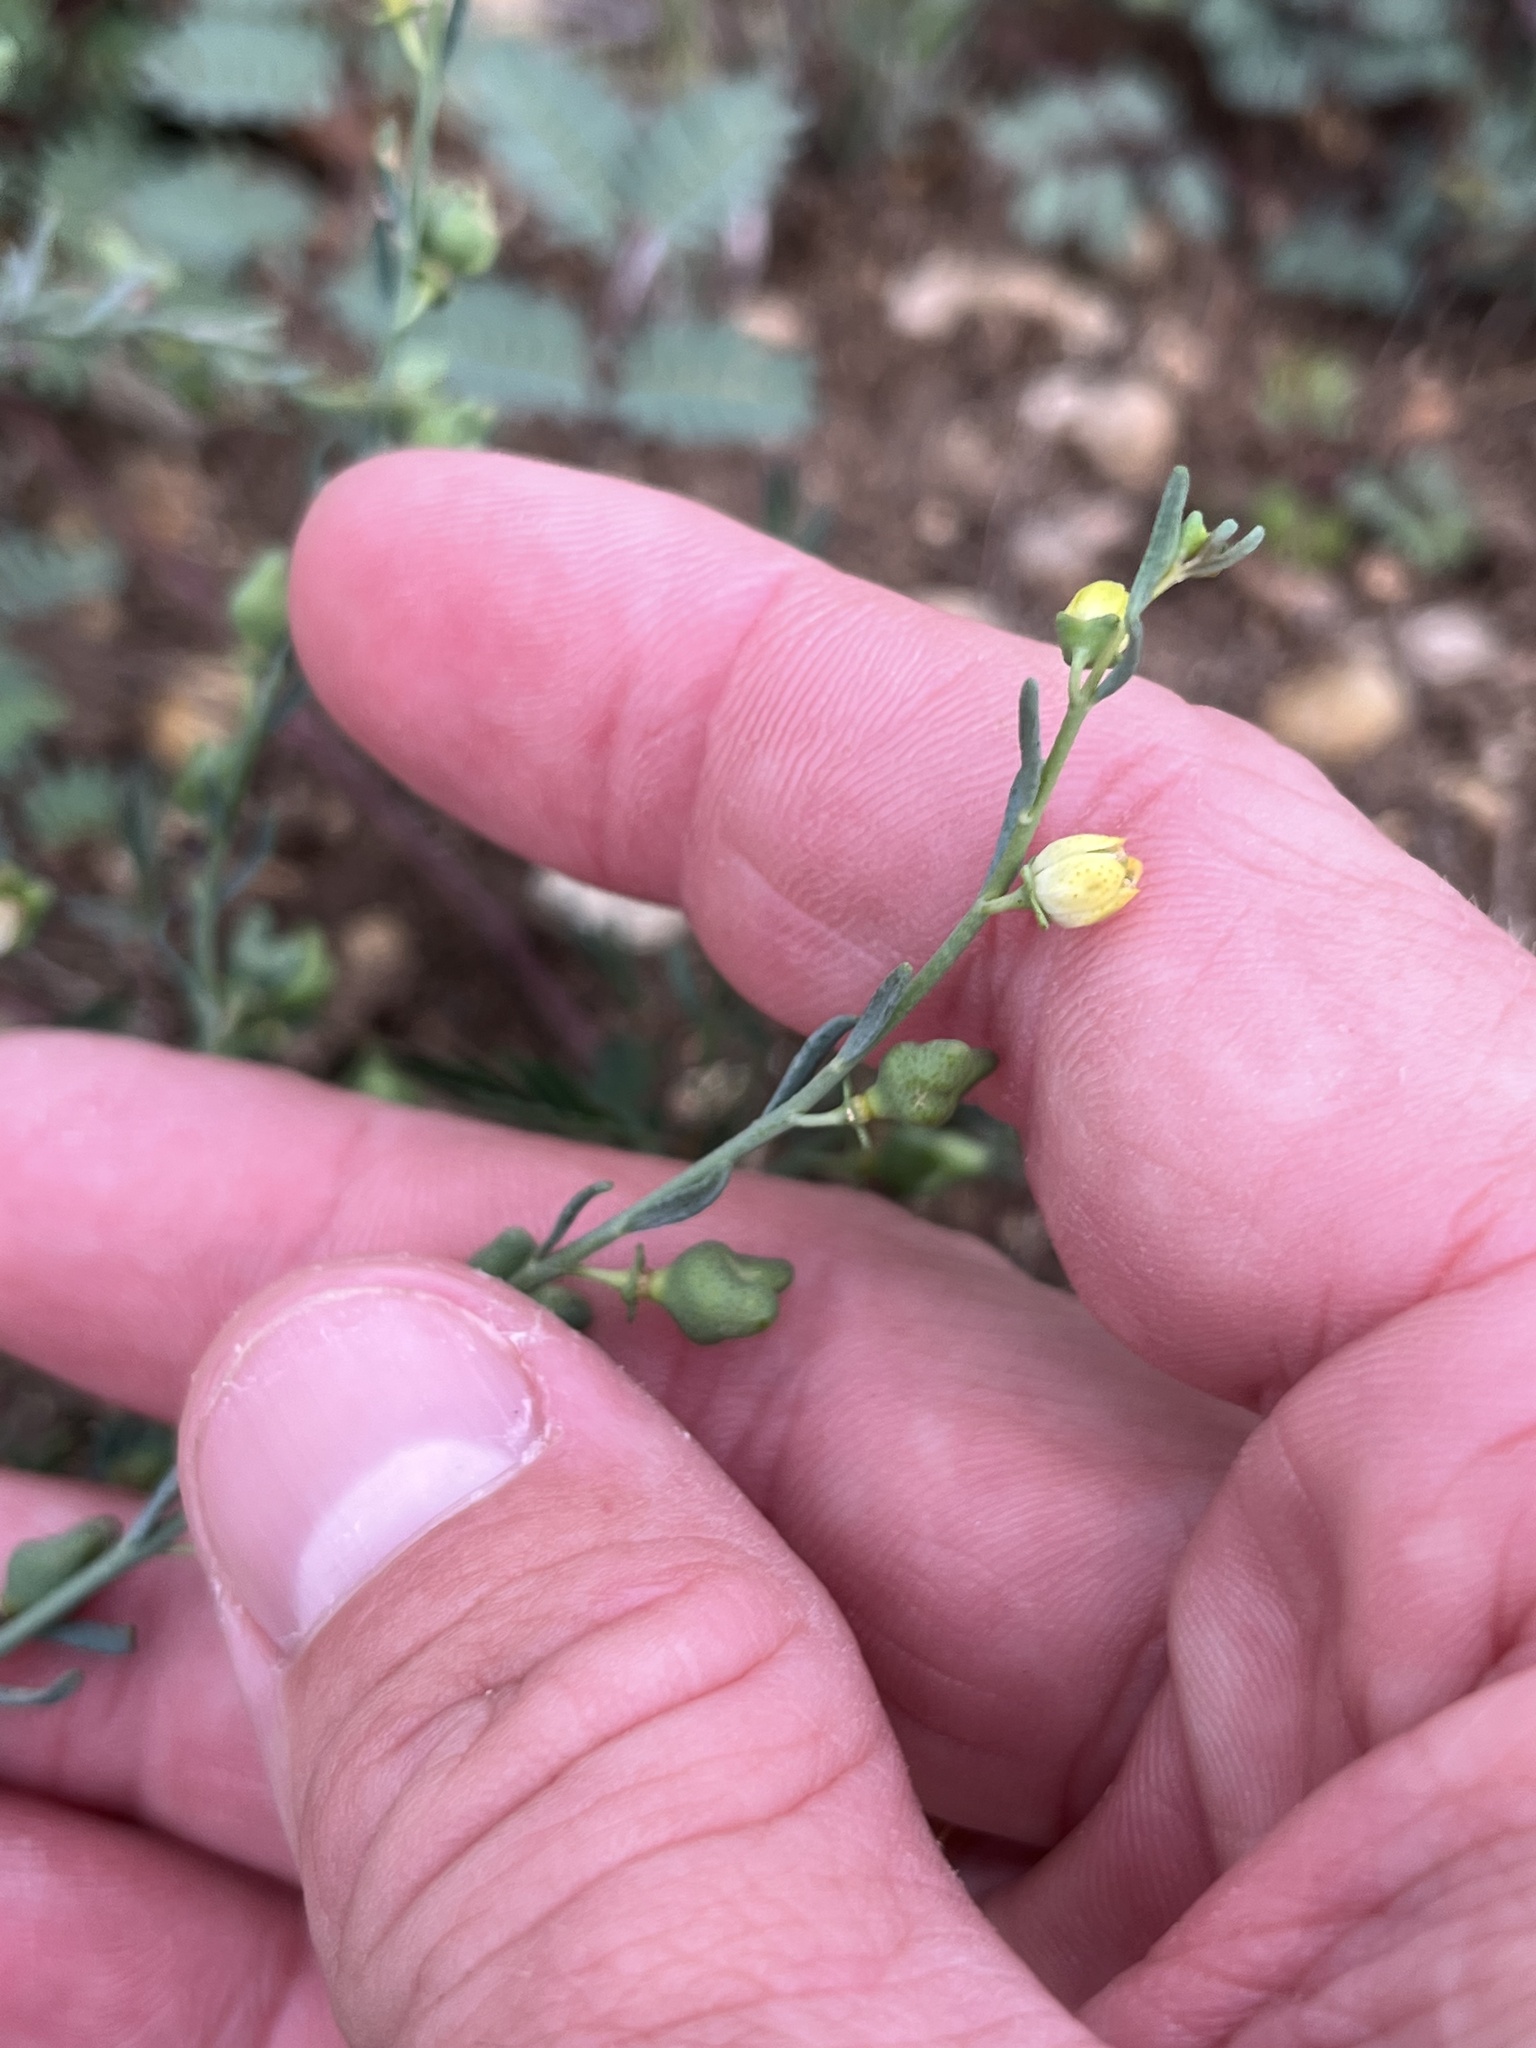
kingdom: Plantae
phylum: Tracheophyta
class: Magnoliopsida
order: Sapindales
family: Rutaceae
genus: Thamnosma
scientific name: Thamnosma texana
